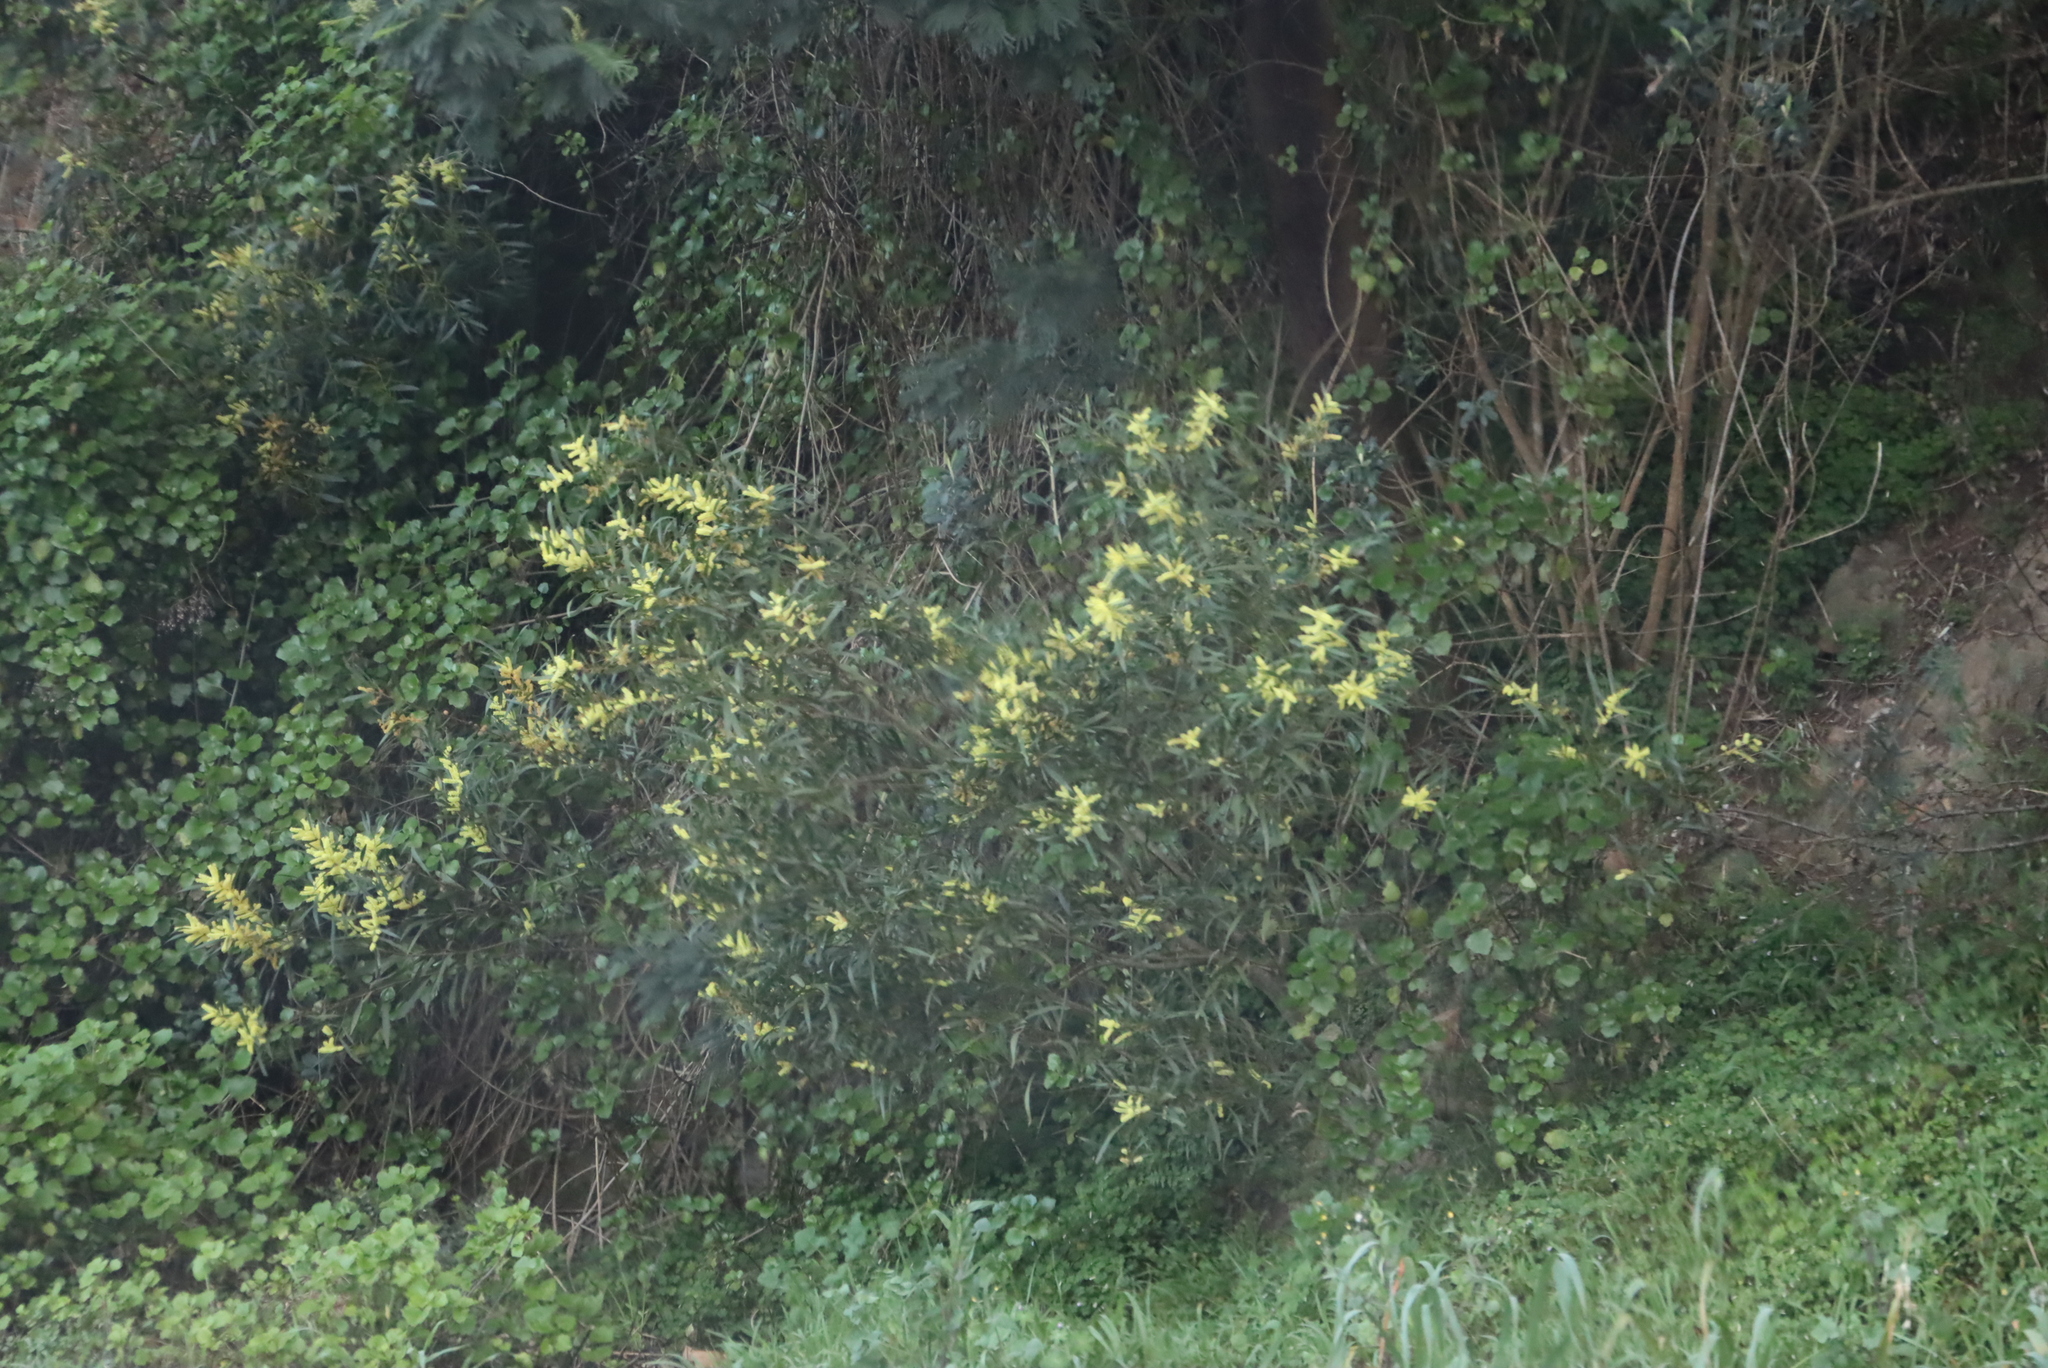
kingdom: Plantae
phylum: Tracheophyta
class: Magnoliopsida
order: Fabales
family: Fabaceae
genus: Acacia
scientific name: Acacia longifolia
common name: Sydney golden wattle
